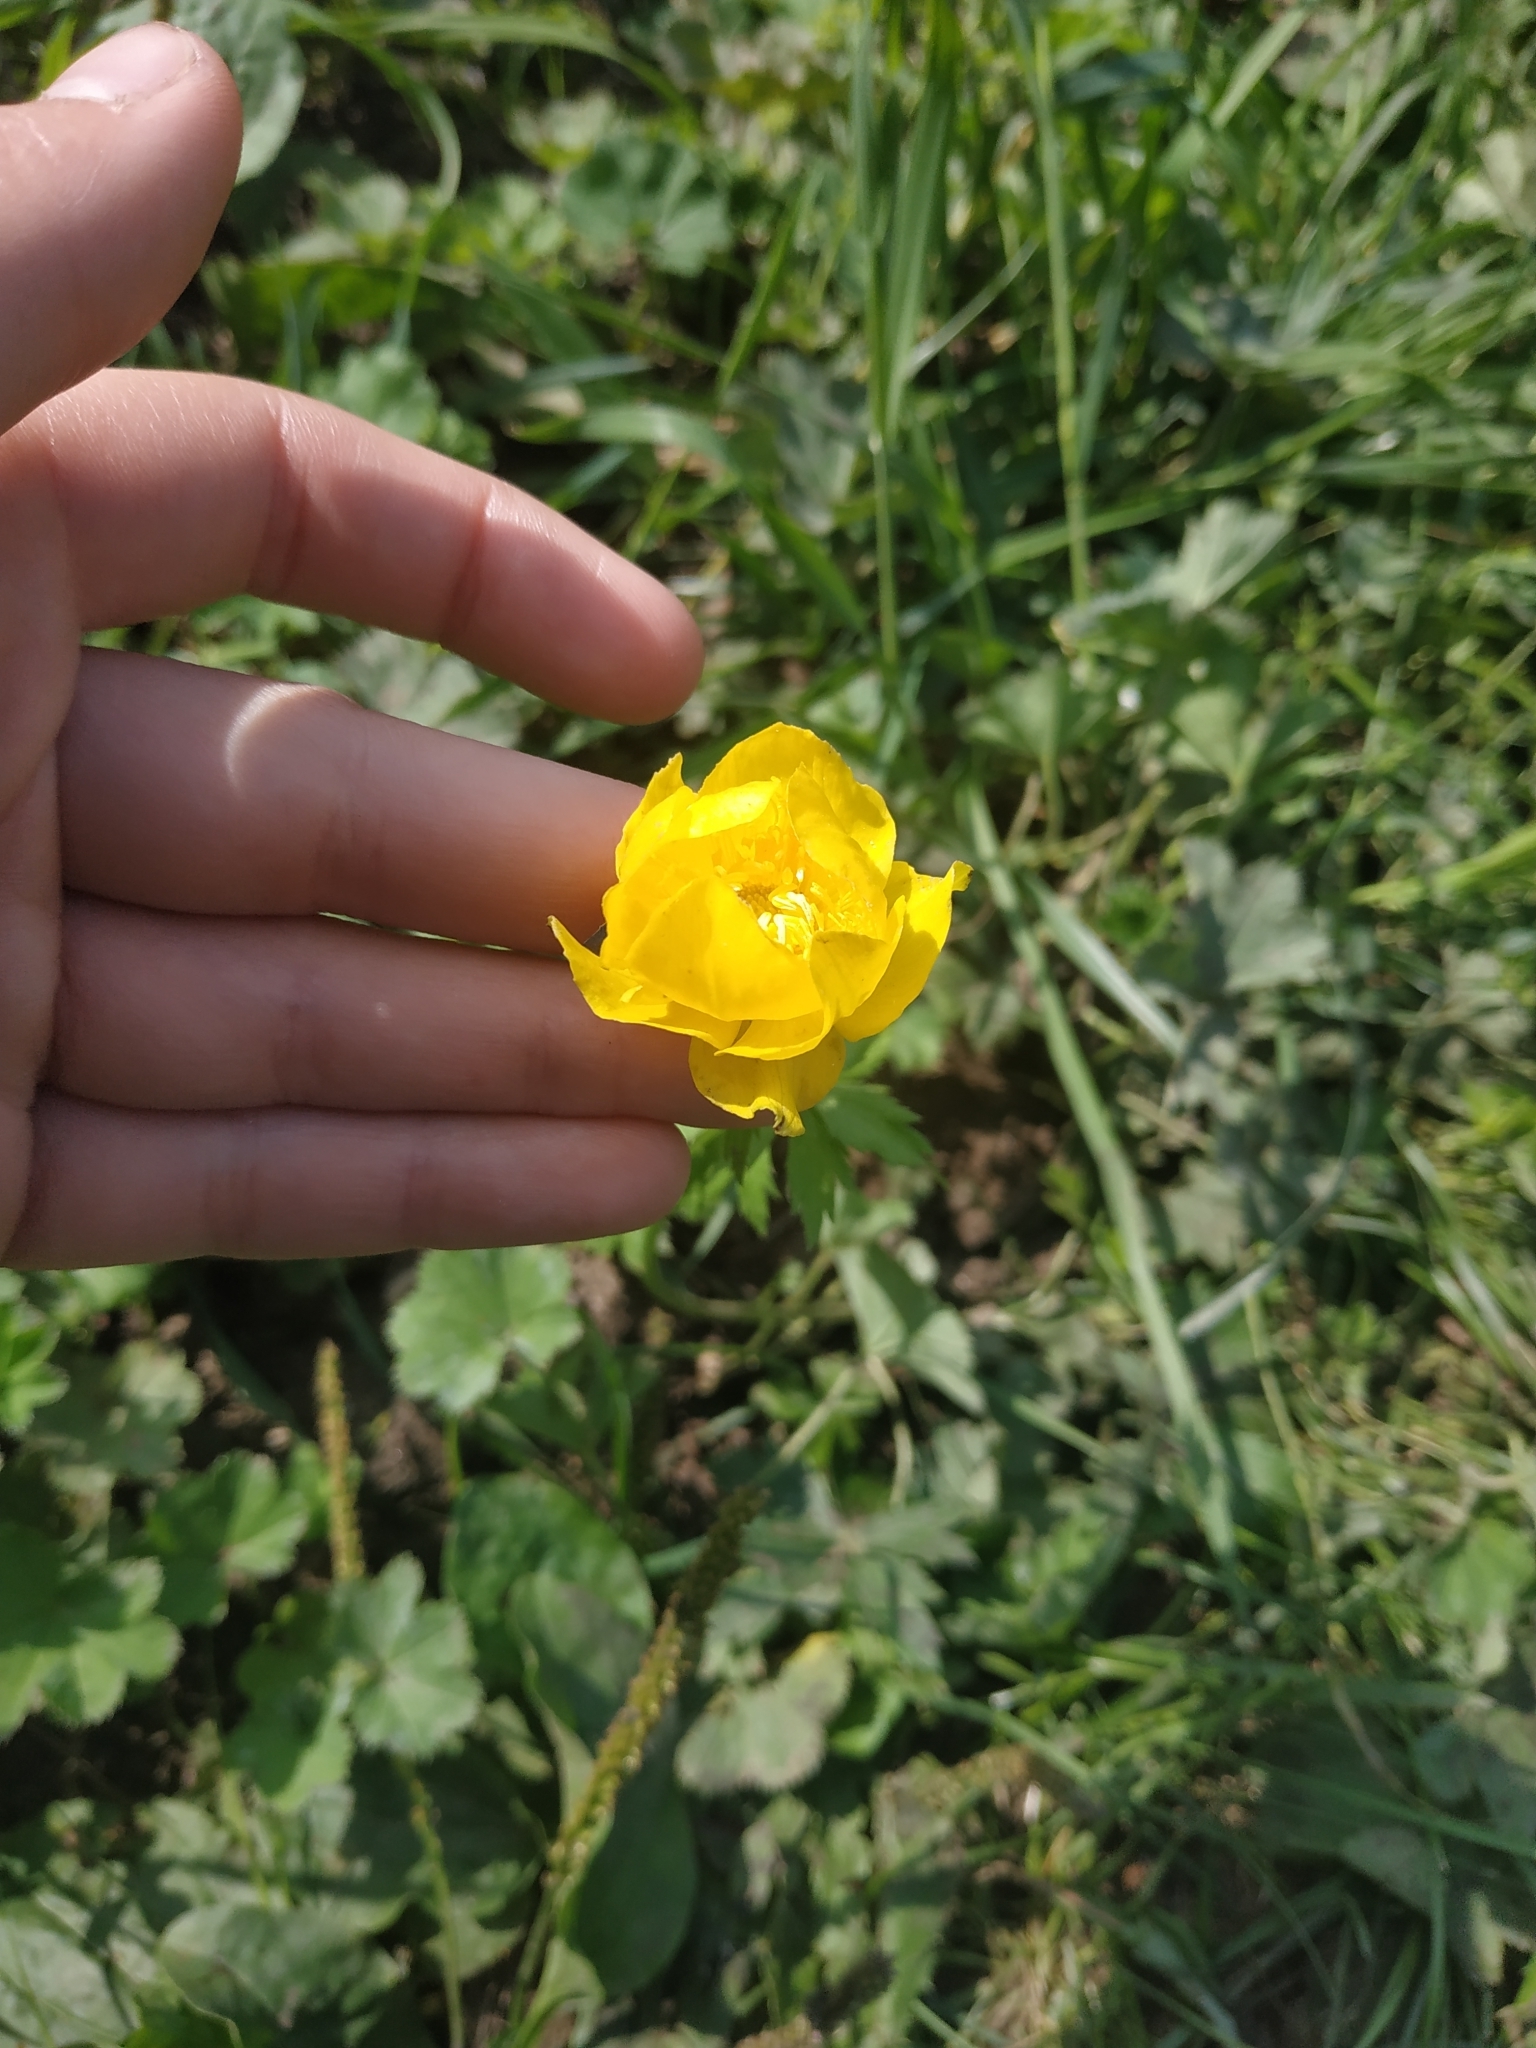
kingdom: Plantae
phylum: Tracheophyta
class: Magnoliopsida
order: Ranunculales
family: Ranunculaceae
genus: Trollius
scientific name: Trollius europaeus
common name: European globeflower
